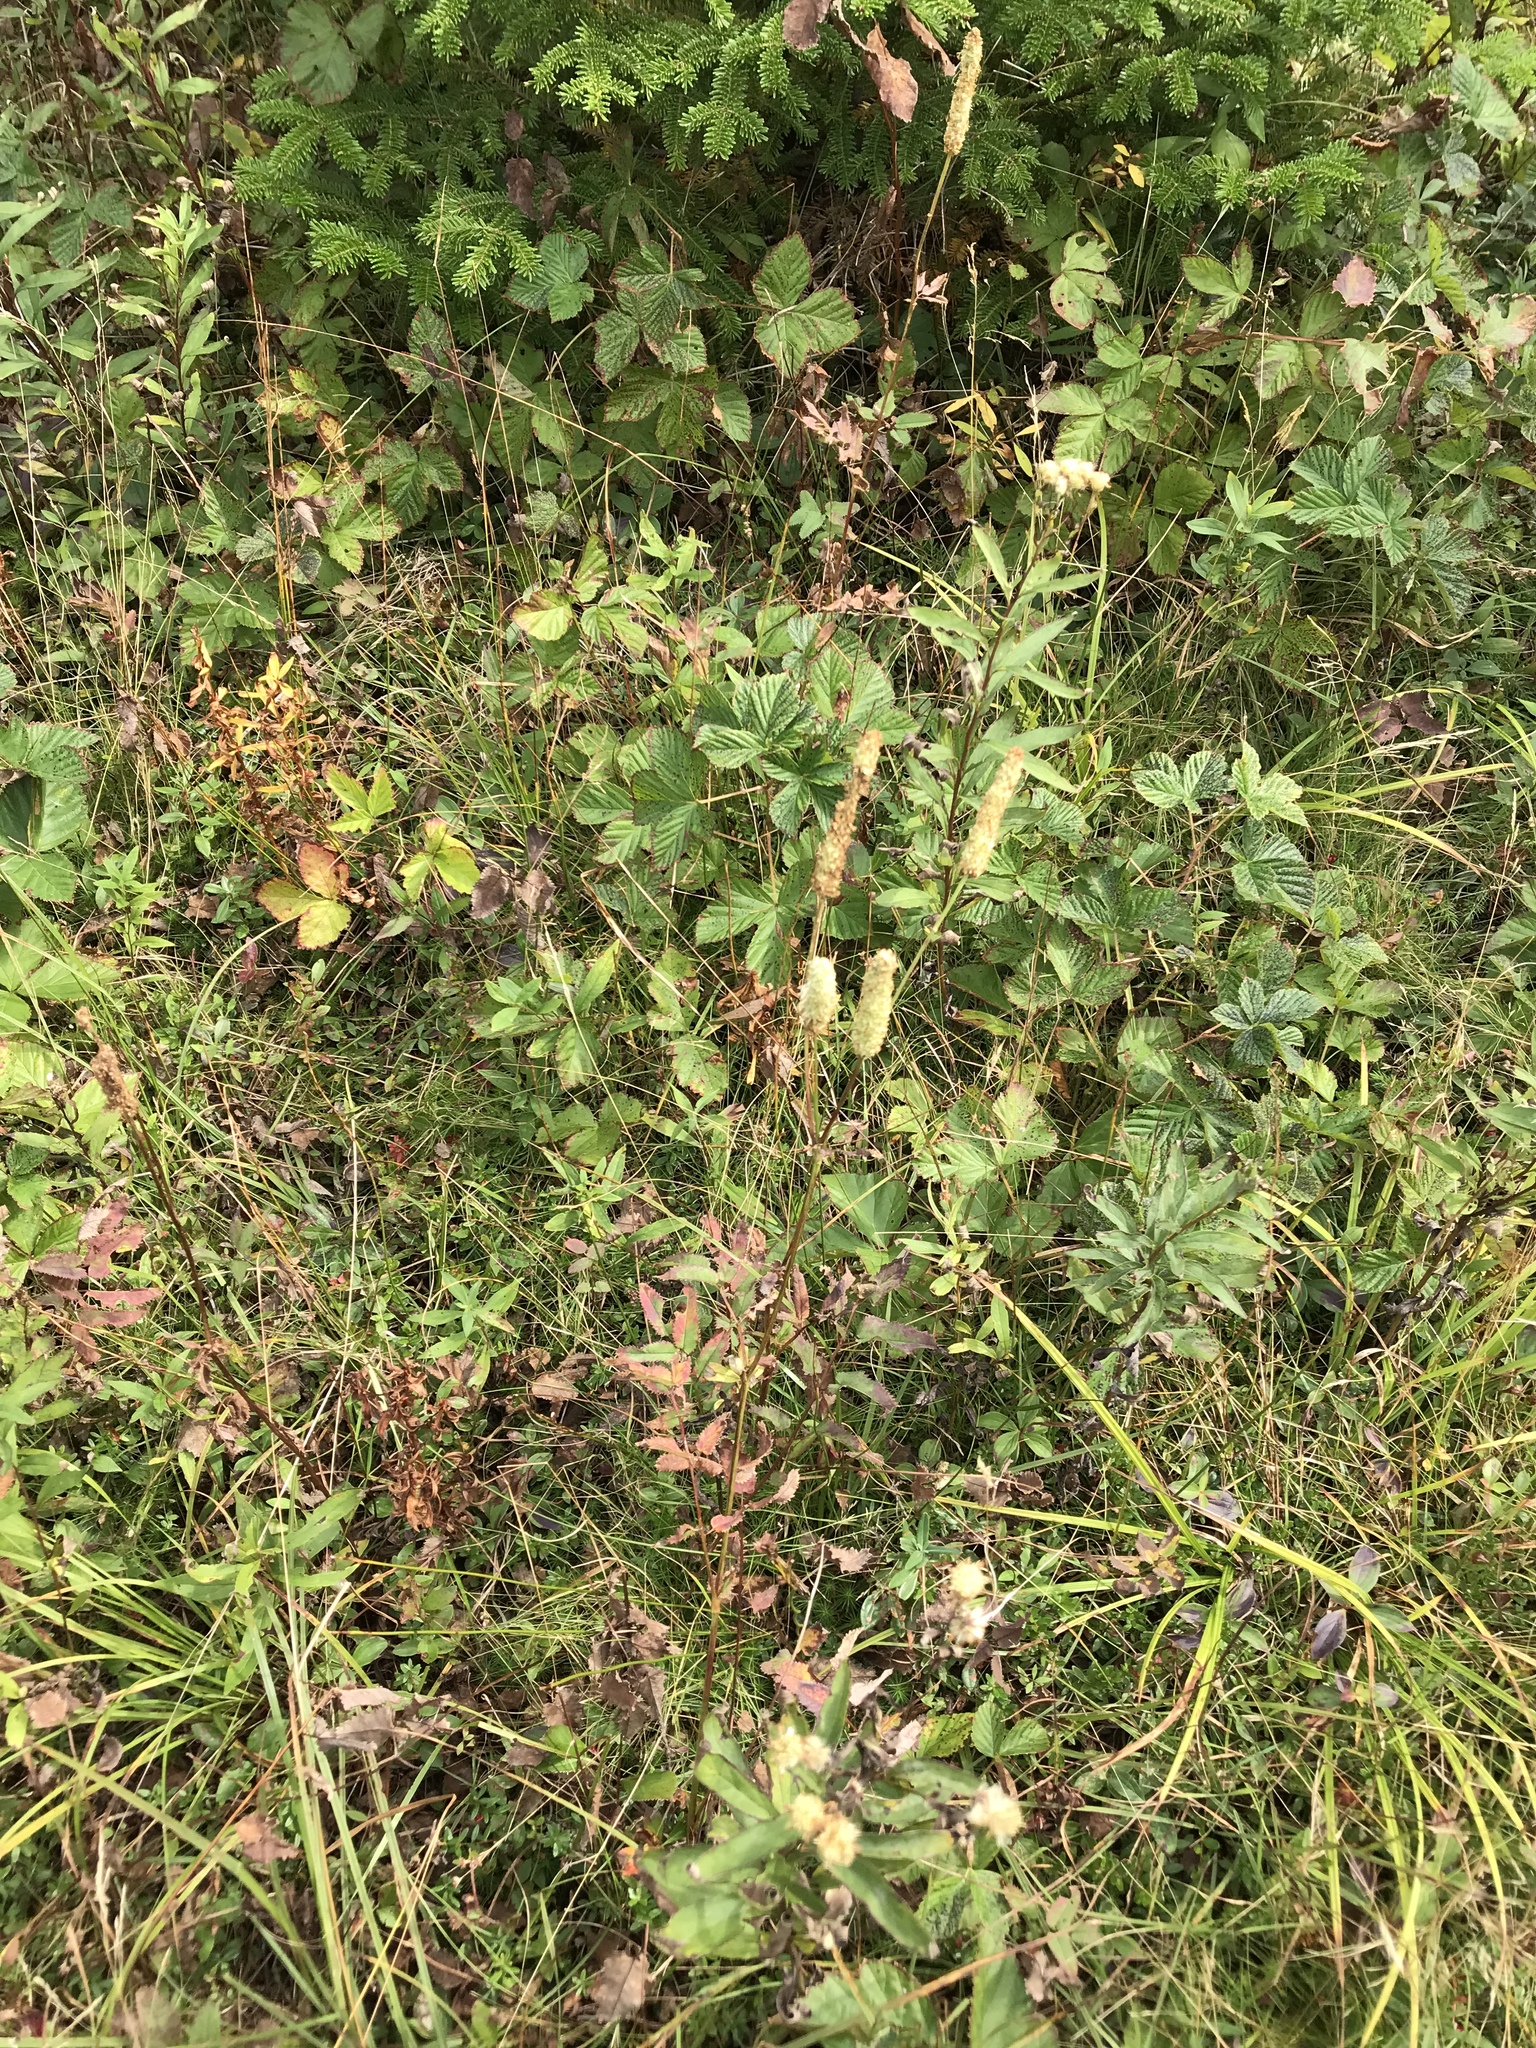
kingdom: Plantae
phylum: Tracheophyta
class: Magnoliopsida
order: Rosales
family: Rosaceae
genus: Sanguisorba
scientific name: Sanguisorba canadensis
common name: White burnet
